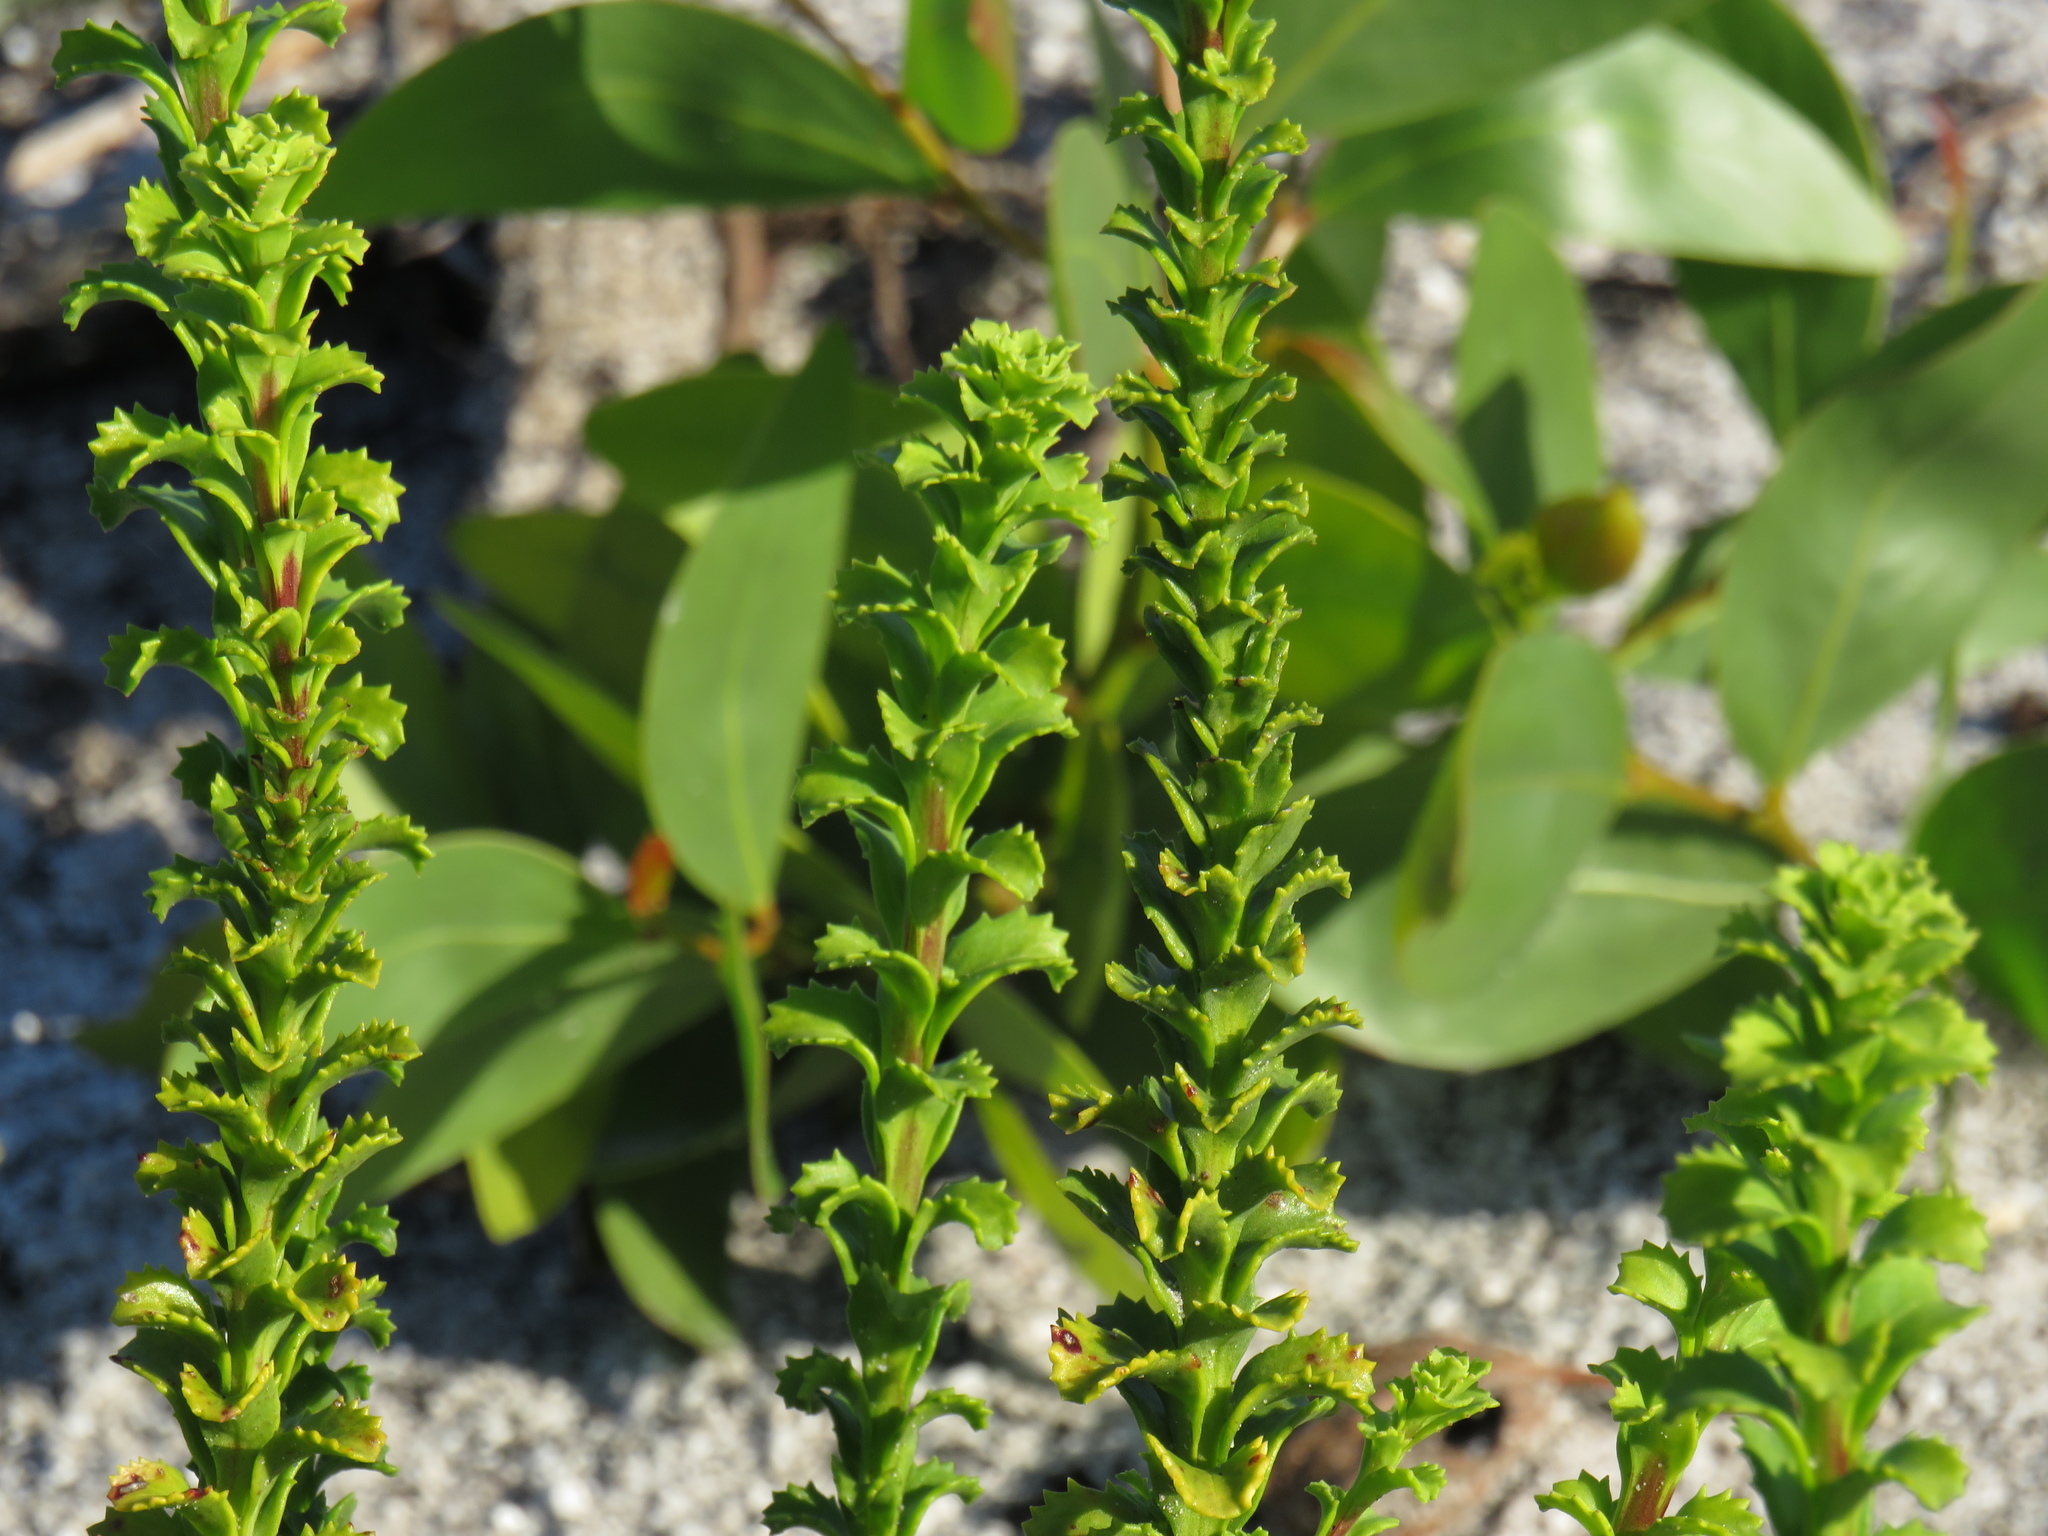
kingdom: Plantae
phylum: Tracheophyta
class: Magnoliopsida
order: Lamiales
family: Scrophulariaceae
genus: Pseudoselago
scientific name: Pseudoselago serrata
